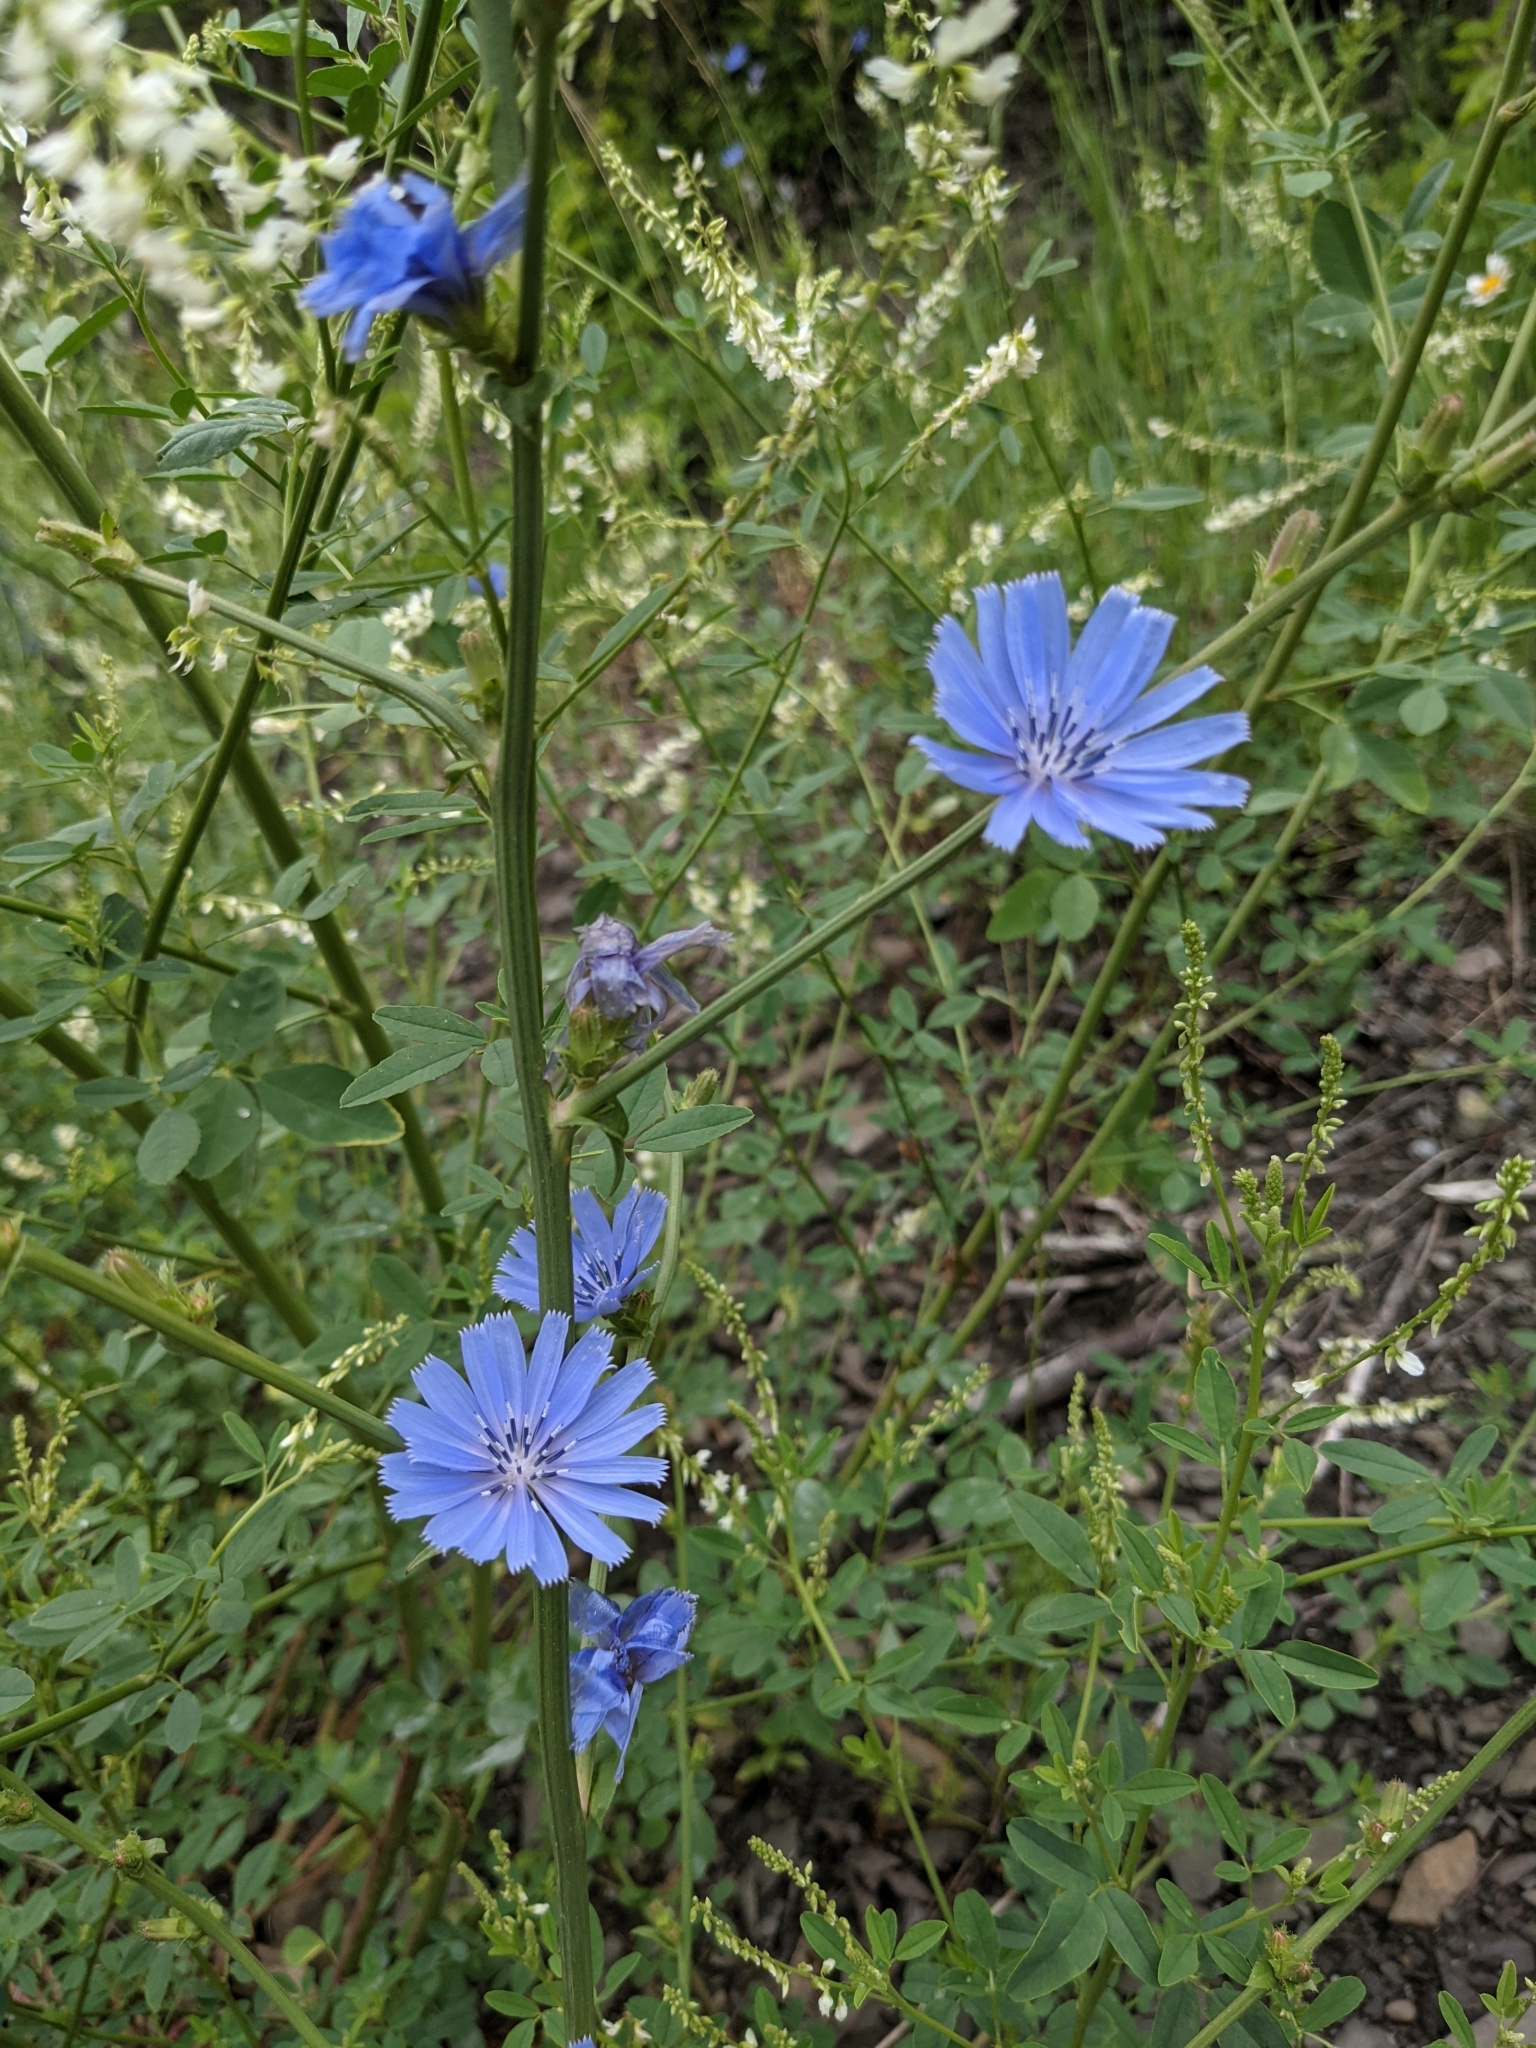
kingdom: Plantae
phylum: Tracheophyta
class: Magnoliopsida
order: Asterales
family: Asteraceae
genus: Cichorium
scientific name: Cichorium intybus
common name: Chicory
